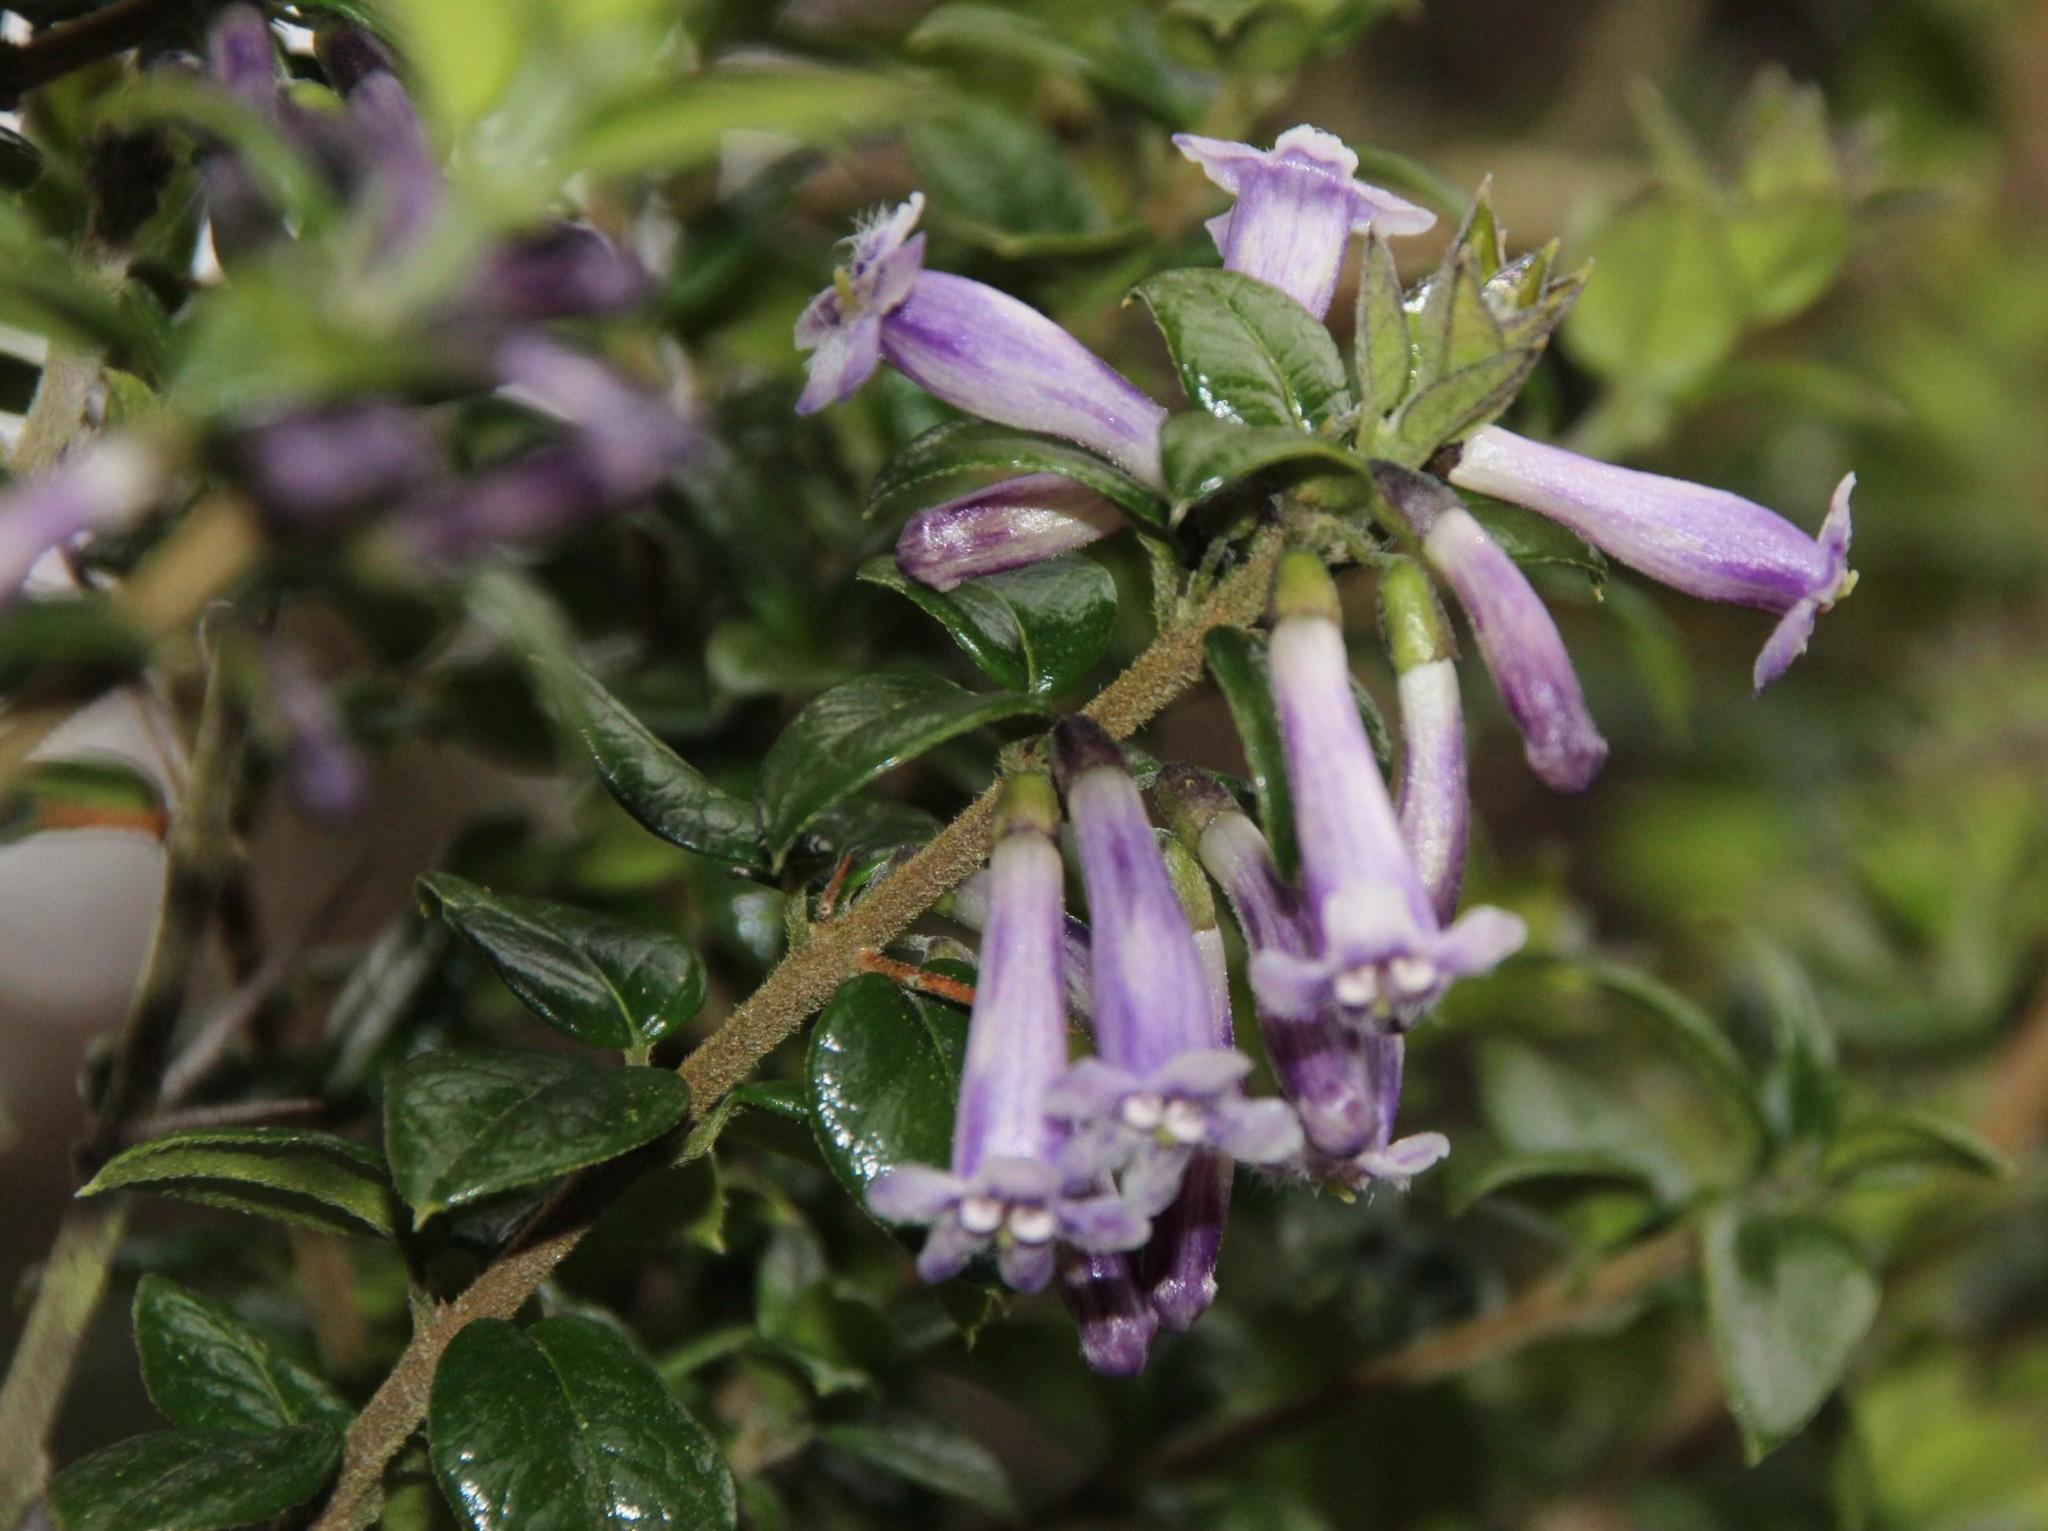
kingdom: Plantae
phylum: Tracheophyta
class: Magnoliopsida
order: Lamiales
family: Verbenaceae
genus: Rhaphithamnus
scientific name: Rhaphithamnus spinosus
